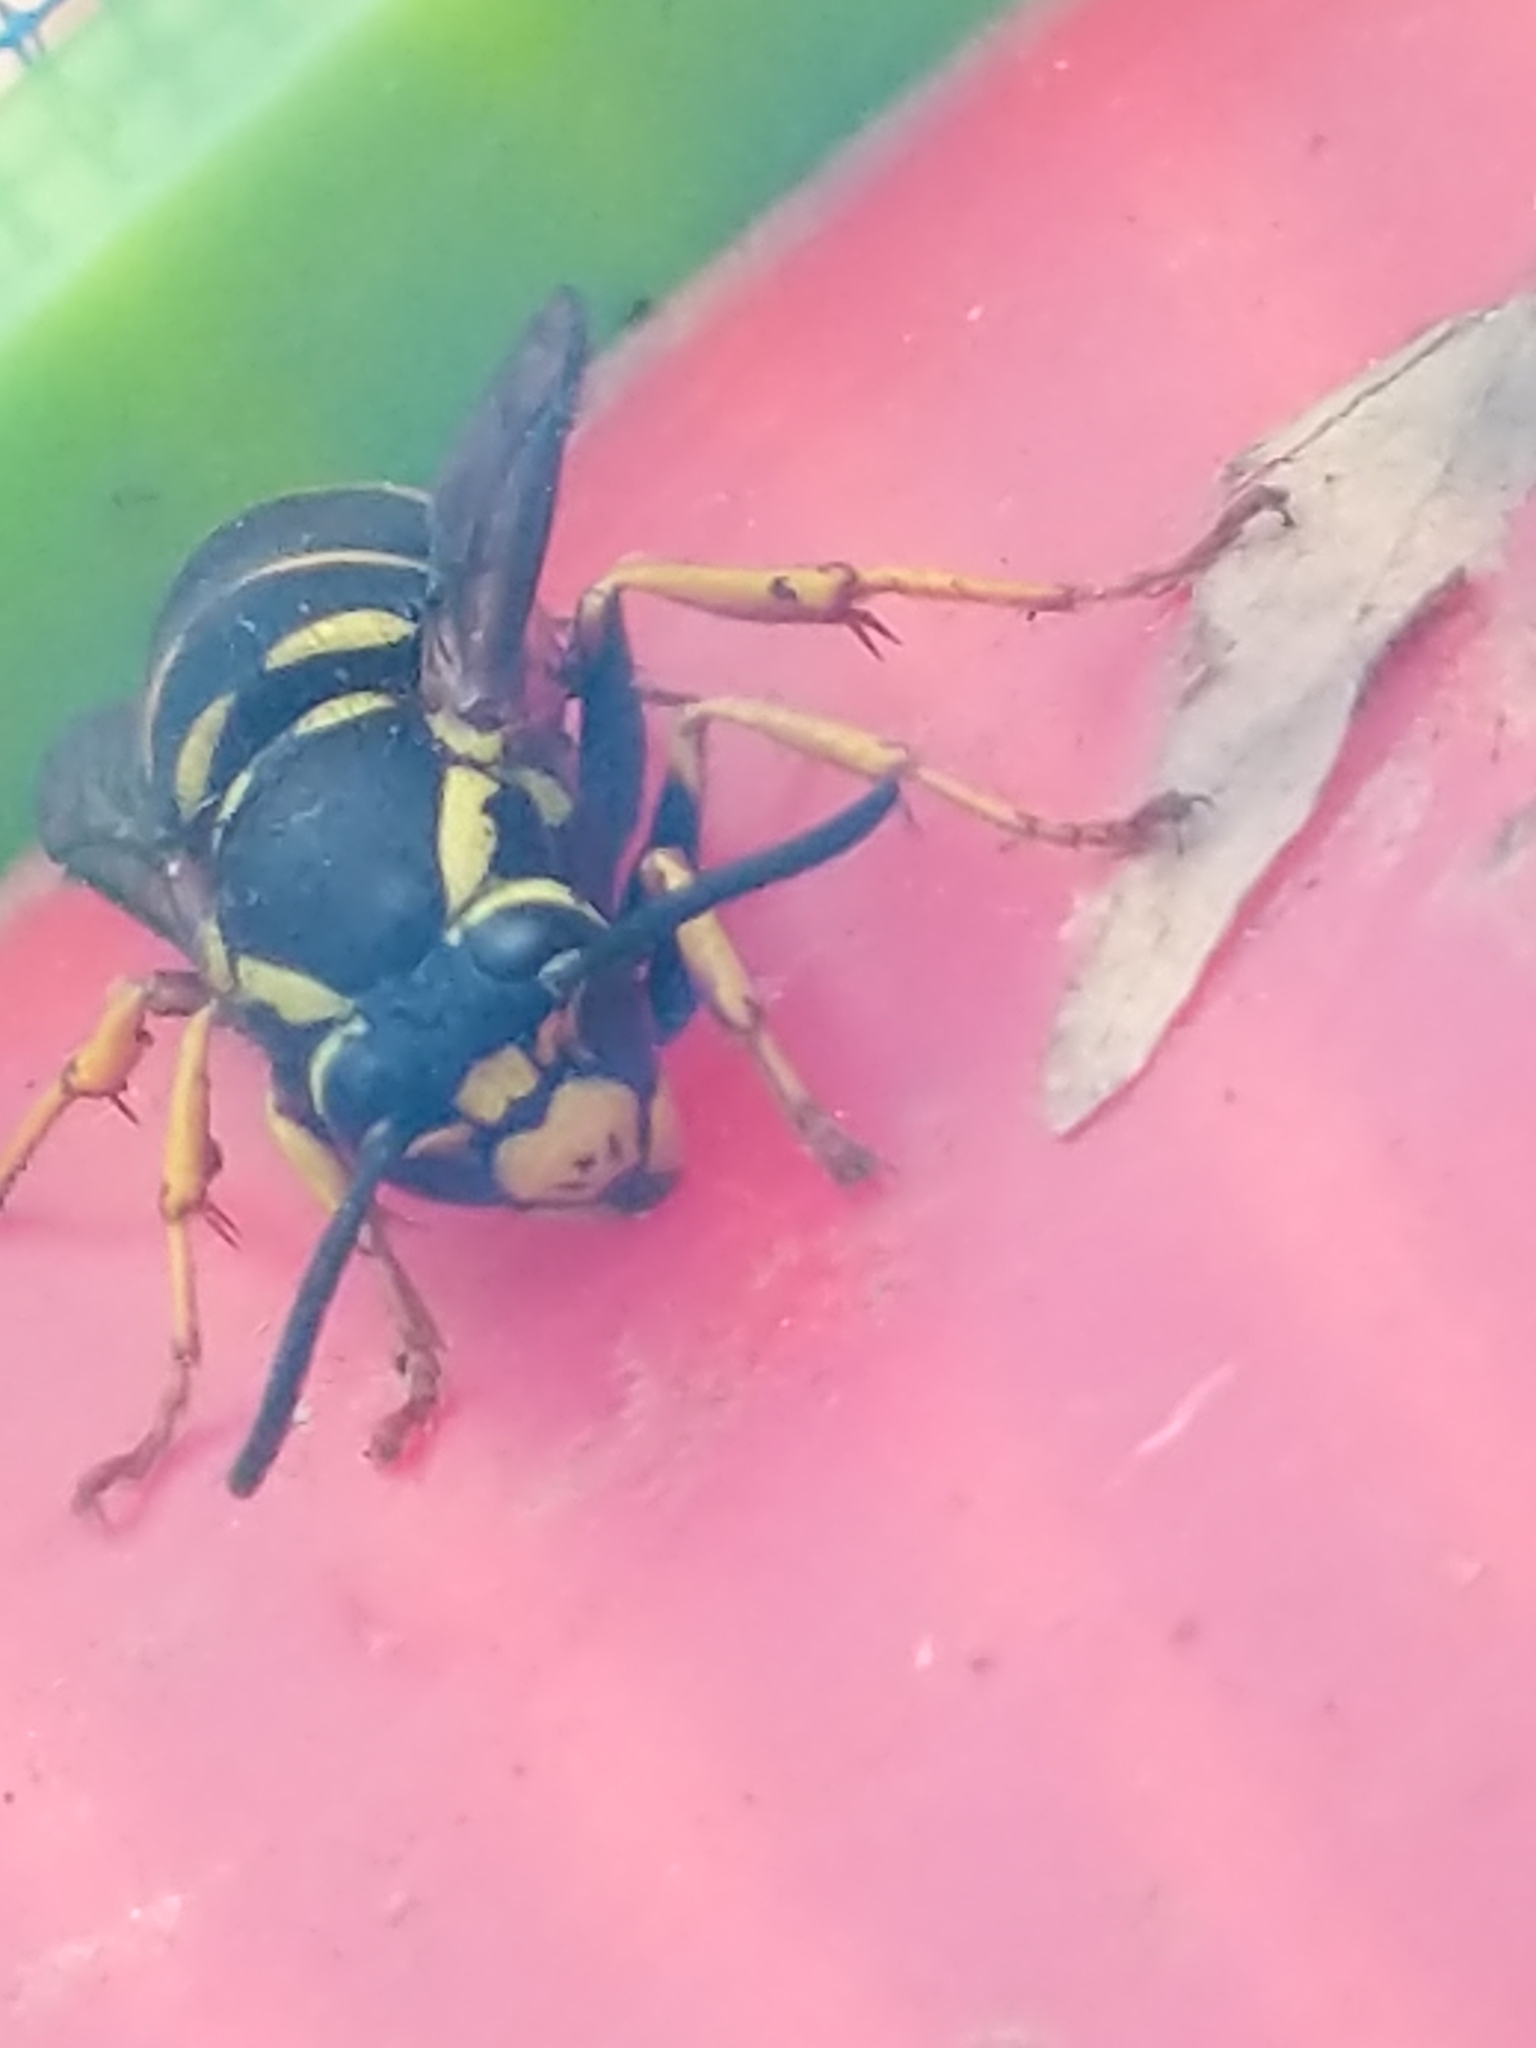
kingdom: Animalia
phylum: Arthropoda
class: Insecta
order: Hymenoptera
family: Vespidae
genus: Vespula
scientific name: Vespula vidua
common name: Widow yellowjacket
